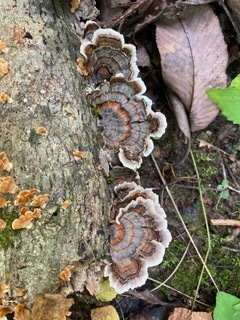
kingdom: Fungi
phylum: Basidiomycota
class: Agaricomycetes
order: Polyporales
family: Polyporaceae
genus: Trametes
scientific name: Trametes versicolor
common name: Turkeytail
